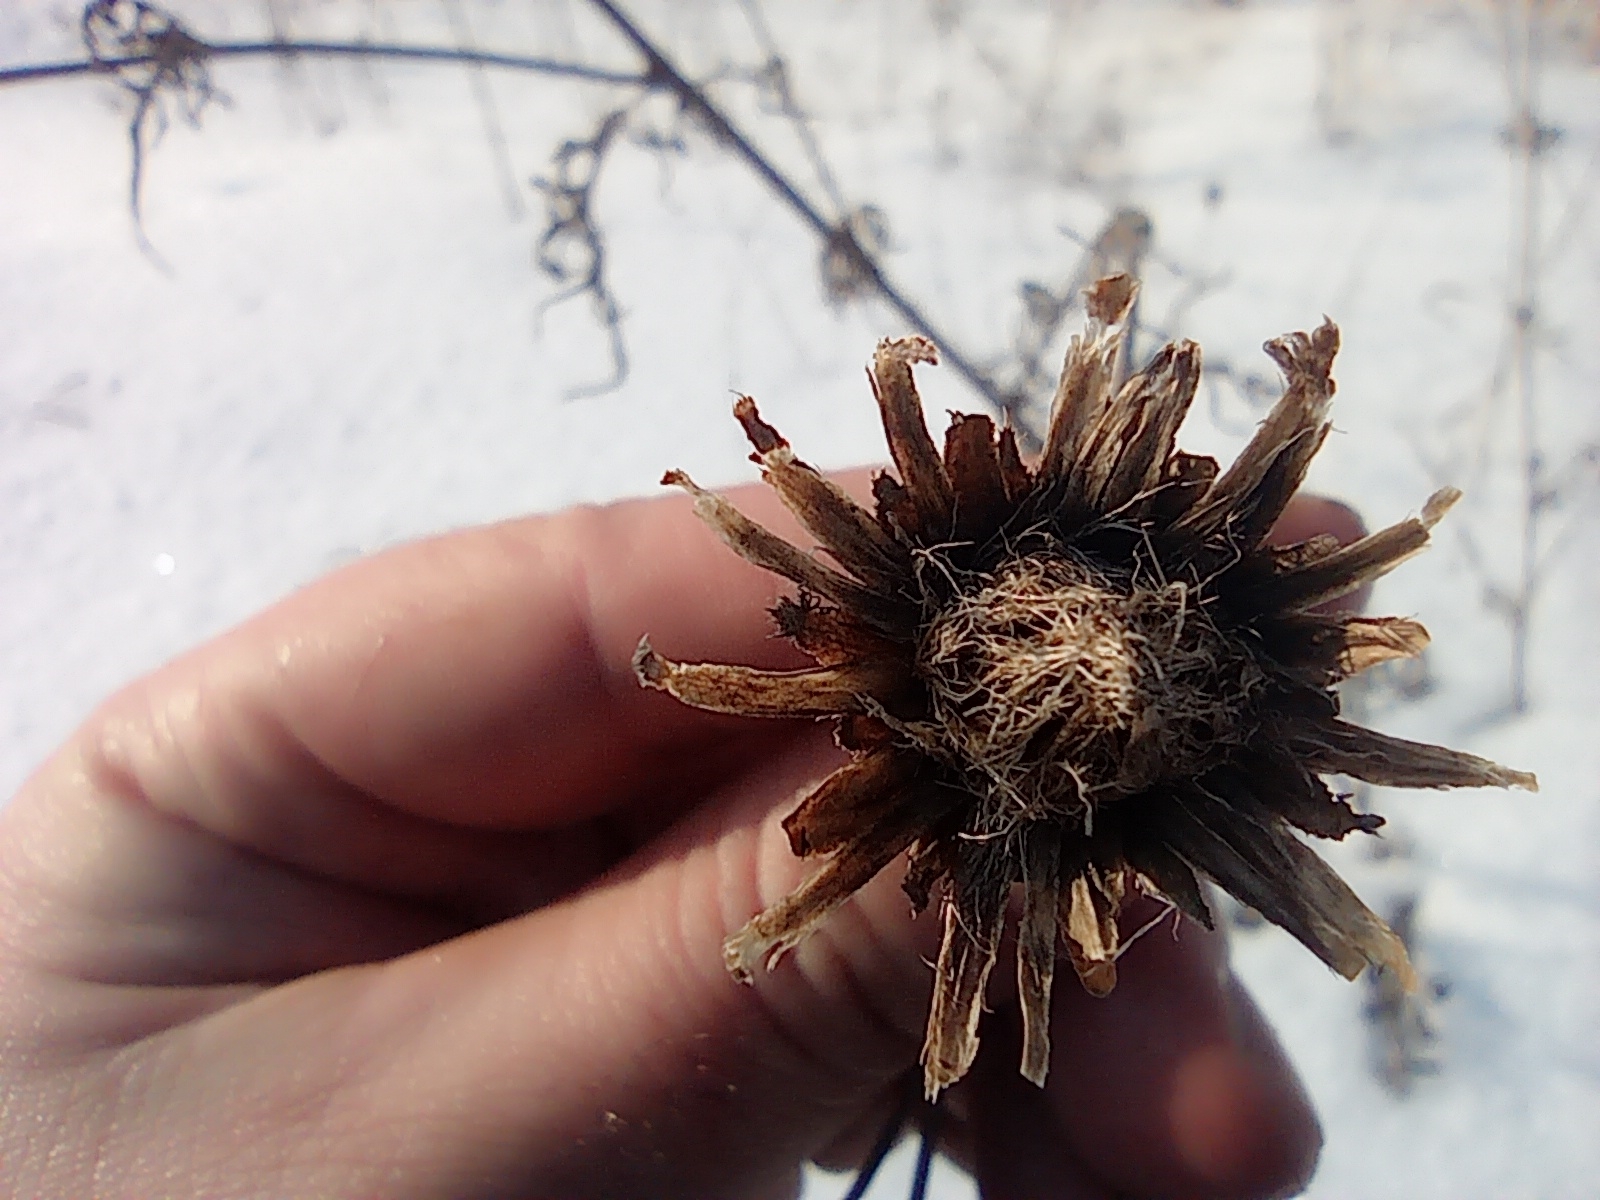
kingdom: Plantae
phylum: Tracheophyta
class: Magnoliopsida
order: Asterales
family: Asteraceae
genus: Centaurea
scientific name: Centaurea scabiosa
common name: Greater knapweed
